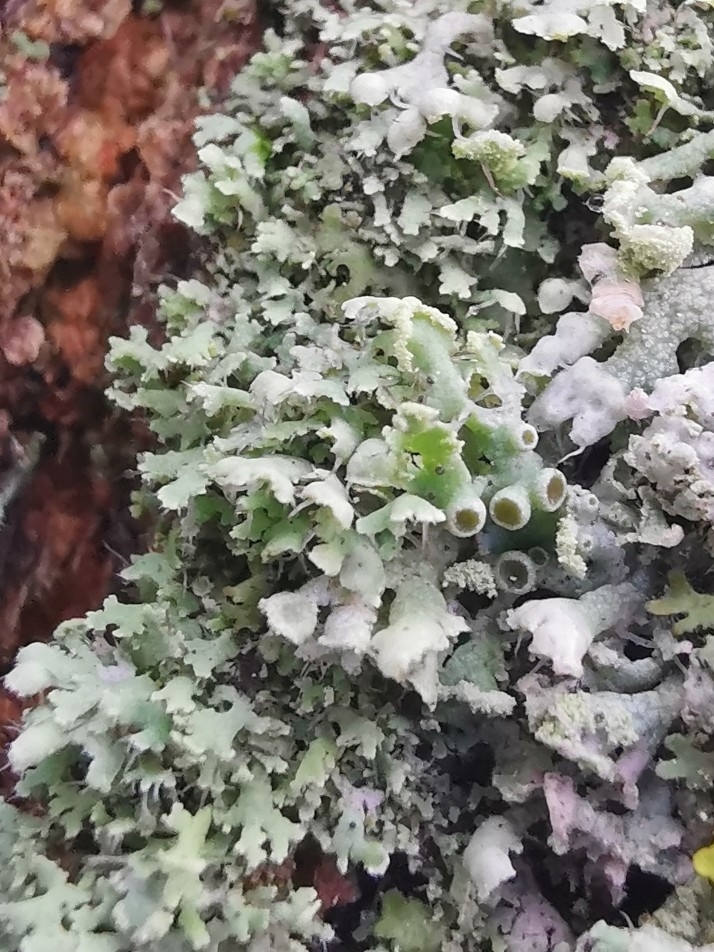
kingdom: Fungi
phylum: Ascomycota
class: Lecanoromycetes
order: Caliciales
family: Physciaceae
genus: Physcia
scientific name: Physcia adscendens
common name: Hooded rosette lichen
